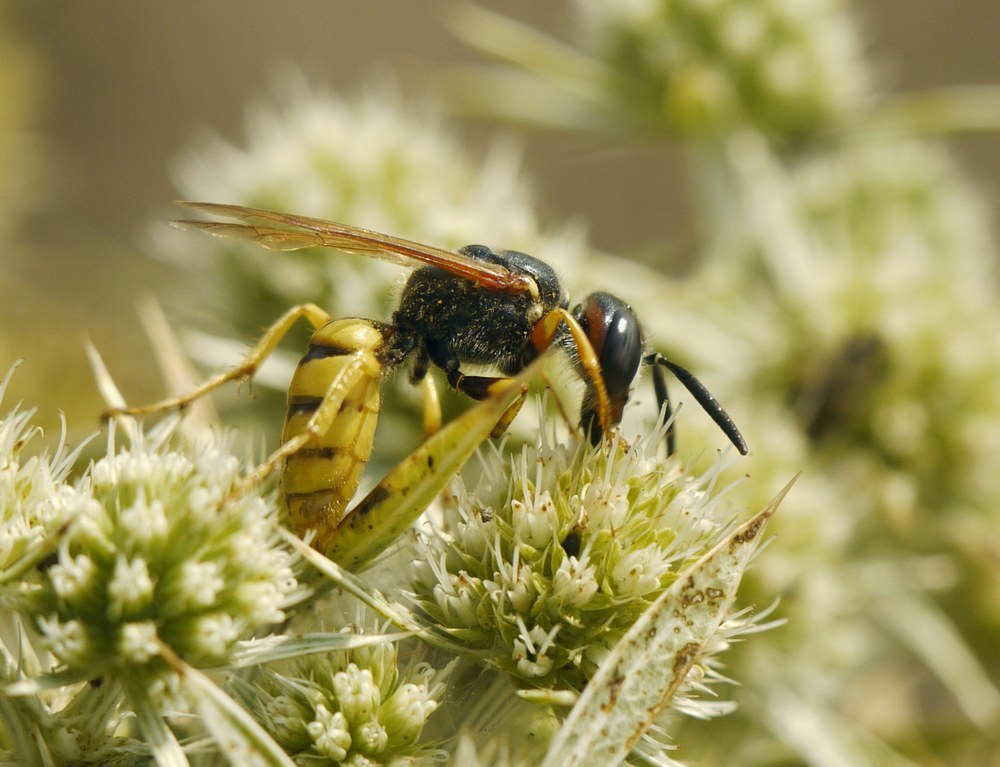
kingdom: Animalia
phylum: Arthropoda
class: Insecta
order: Hymenoptera
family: Crabronidae
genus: Philanthus
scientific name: Philanthus triangulum
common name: Bee wolf
